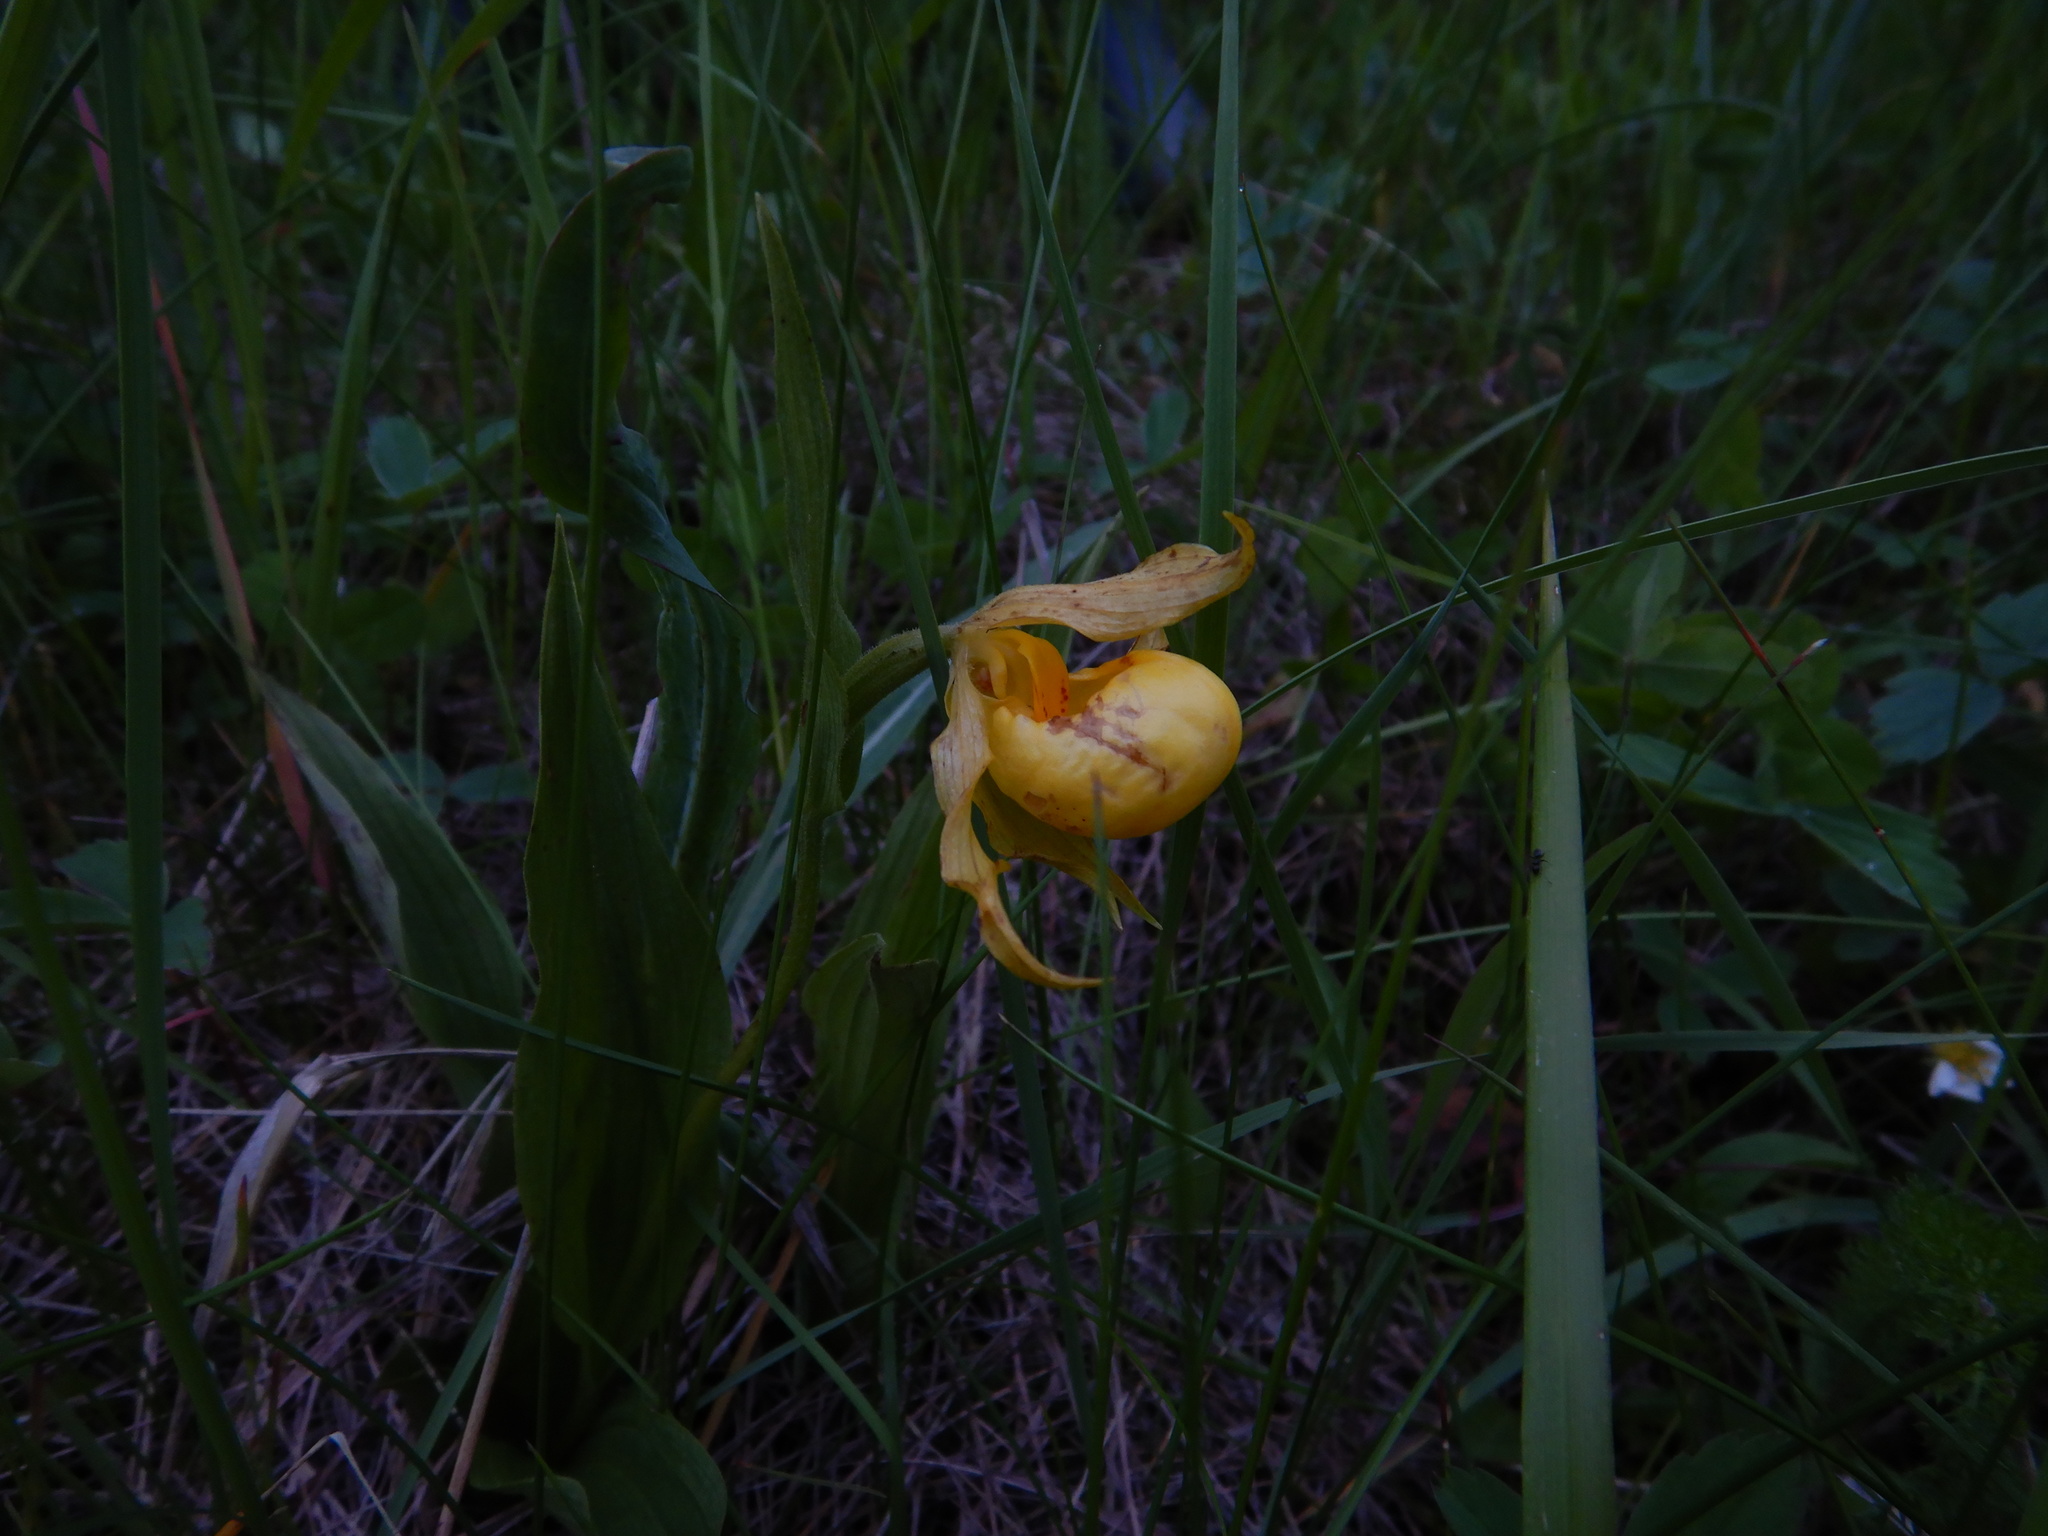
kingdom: Plantae
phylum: Tracheophyta
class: Liliopsida
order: Asparagales
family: Orchidaceae
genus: Cypripedium
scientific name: Cypripedium parviflorum
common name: American yellow lady's-slipper
